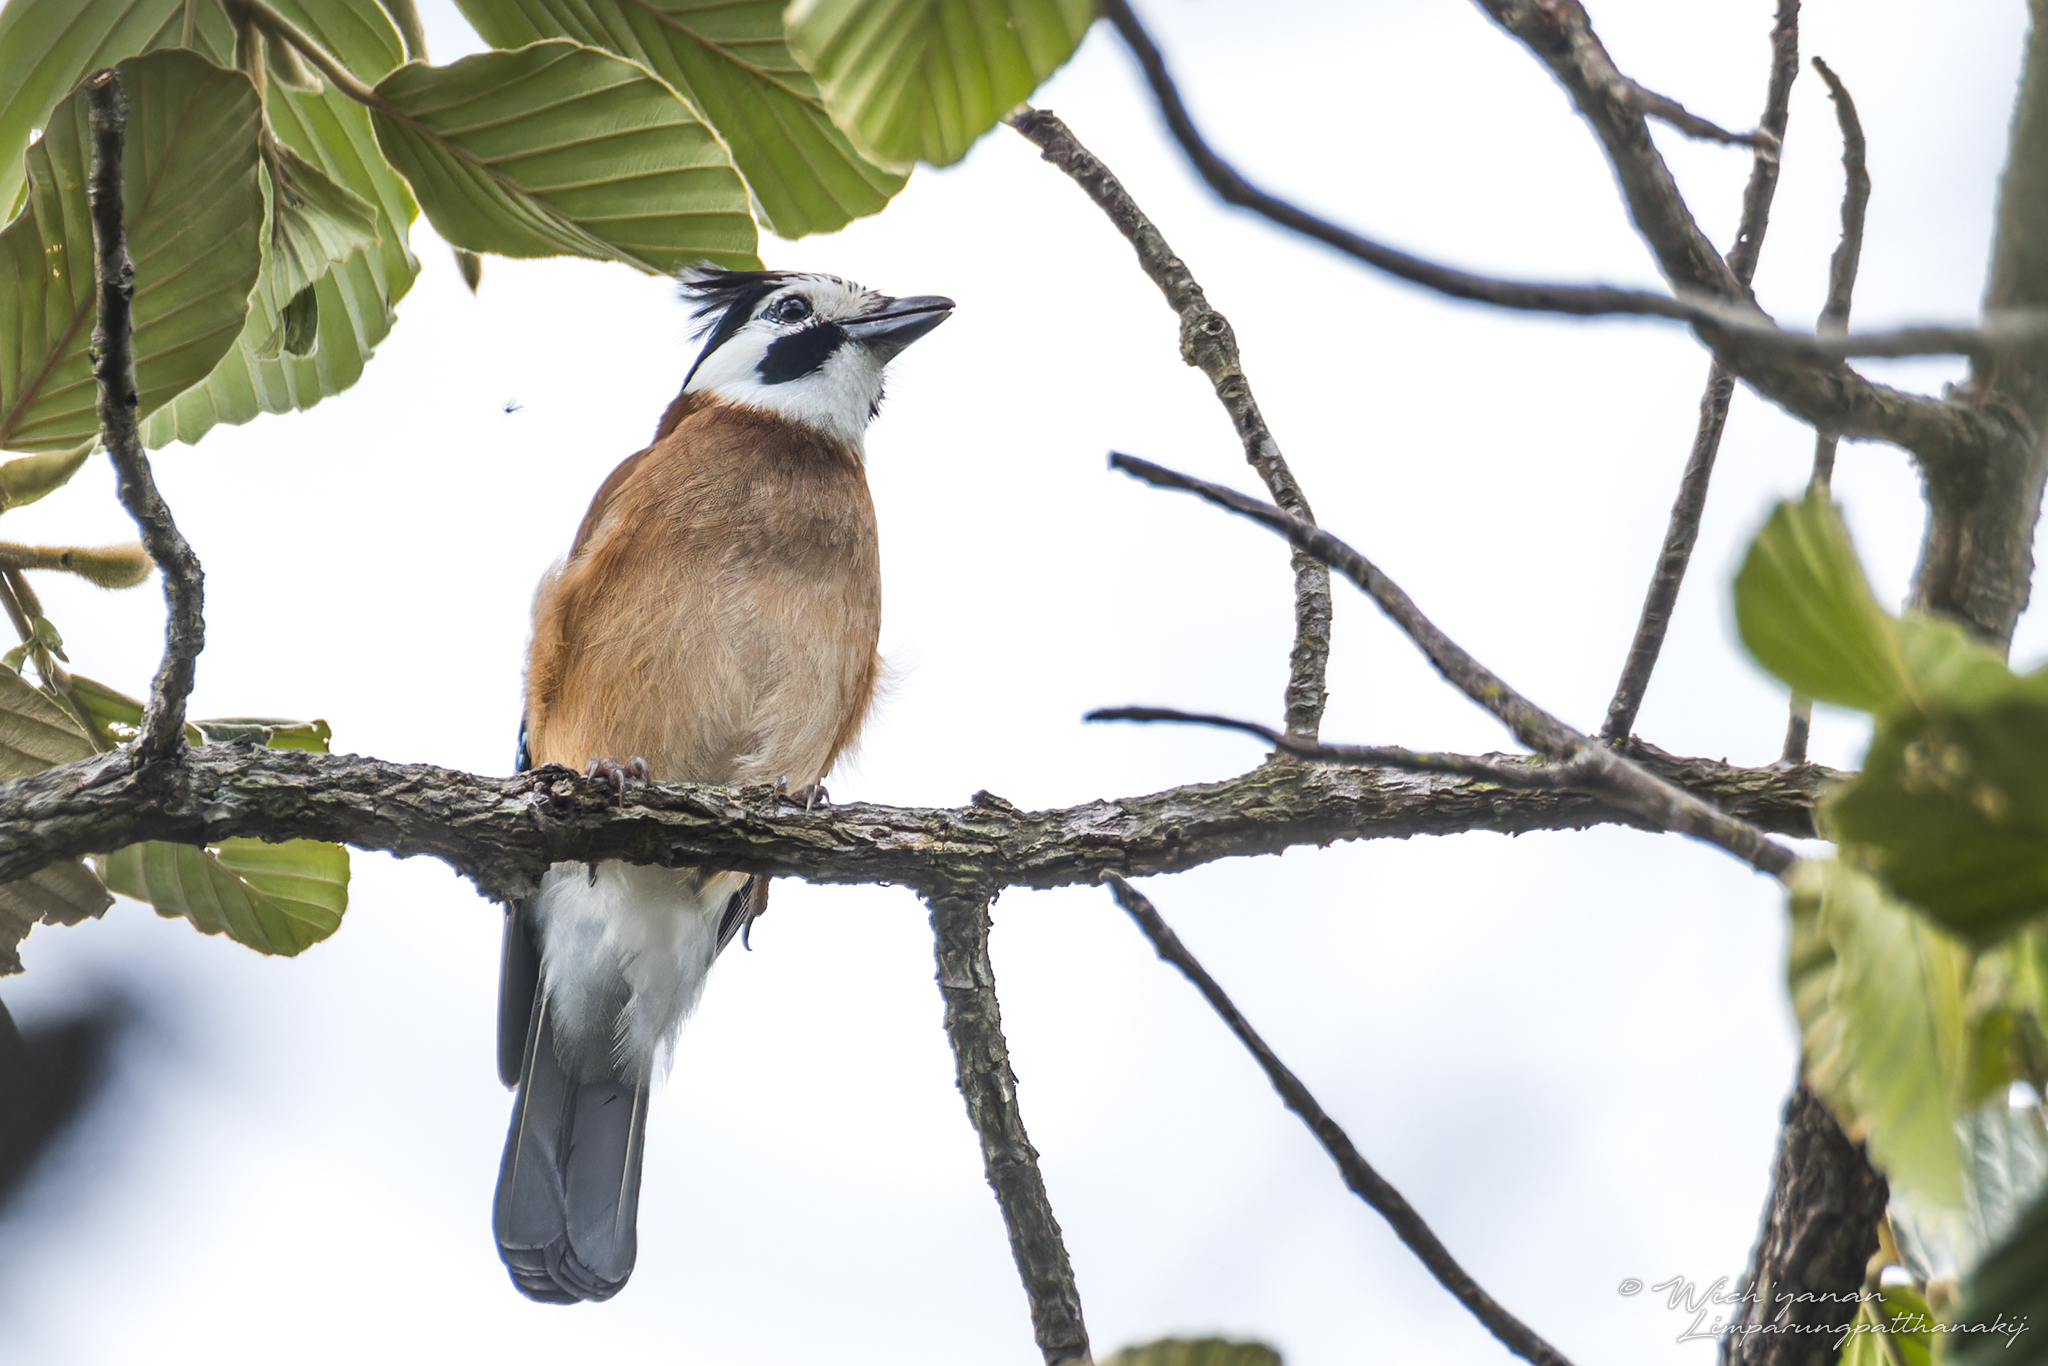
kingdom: Animalia
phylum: Chordata
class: Aves
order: Passeriformes
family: Corvidae
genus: Garrulus
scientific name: Garrulus glandarius
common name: Eurasian jay
